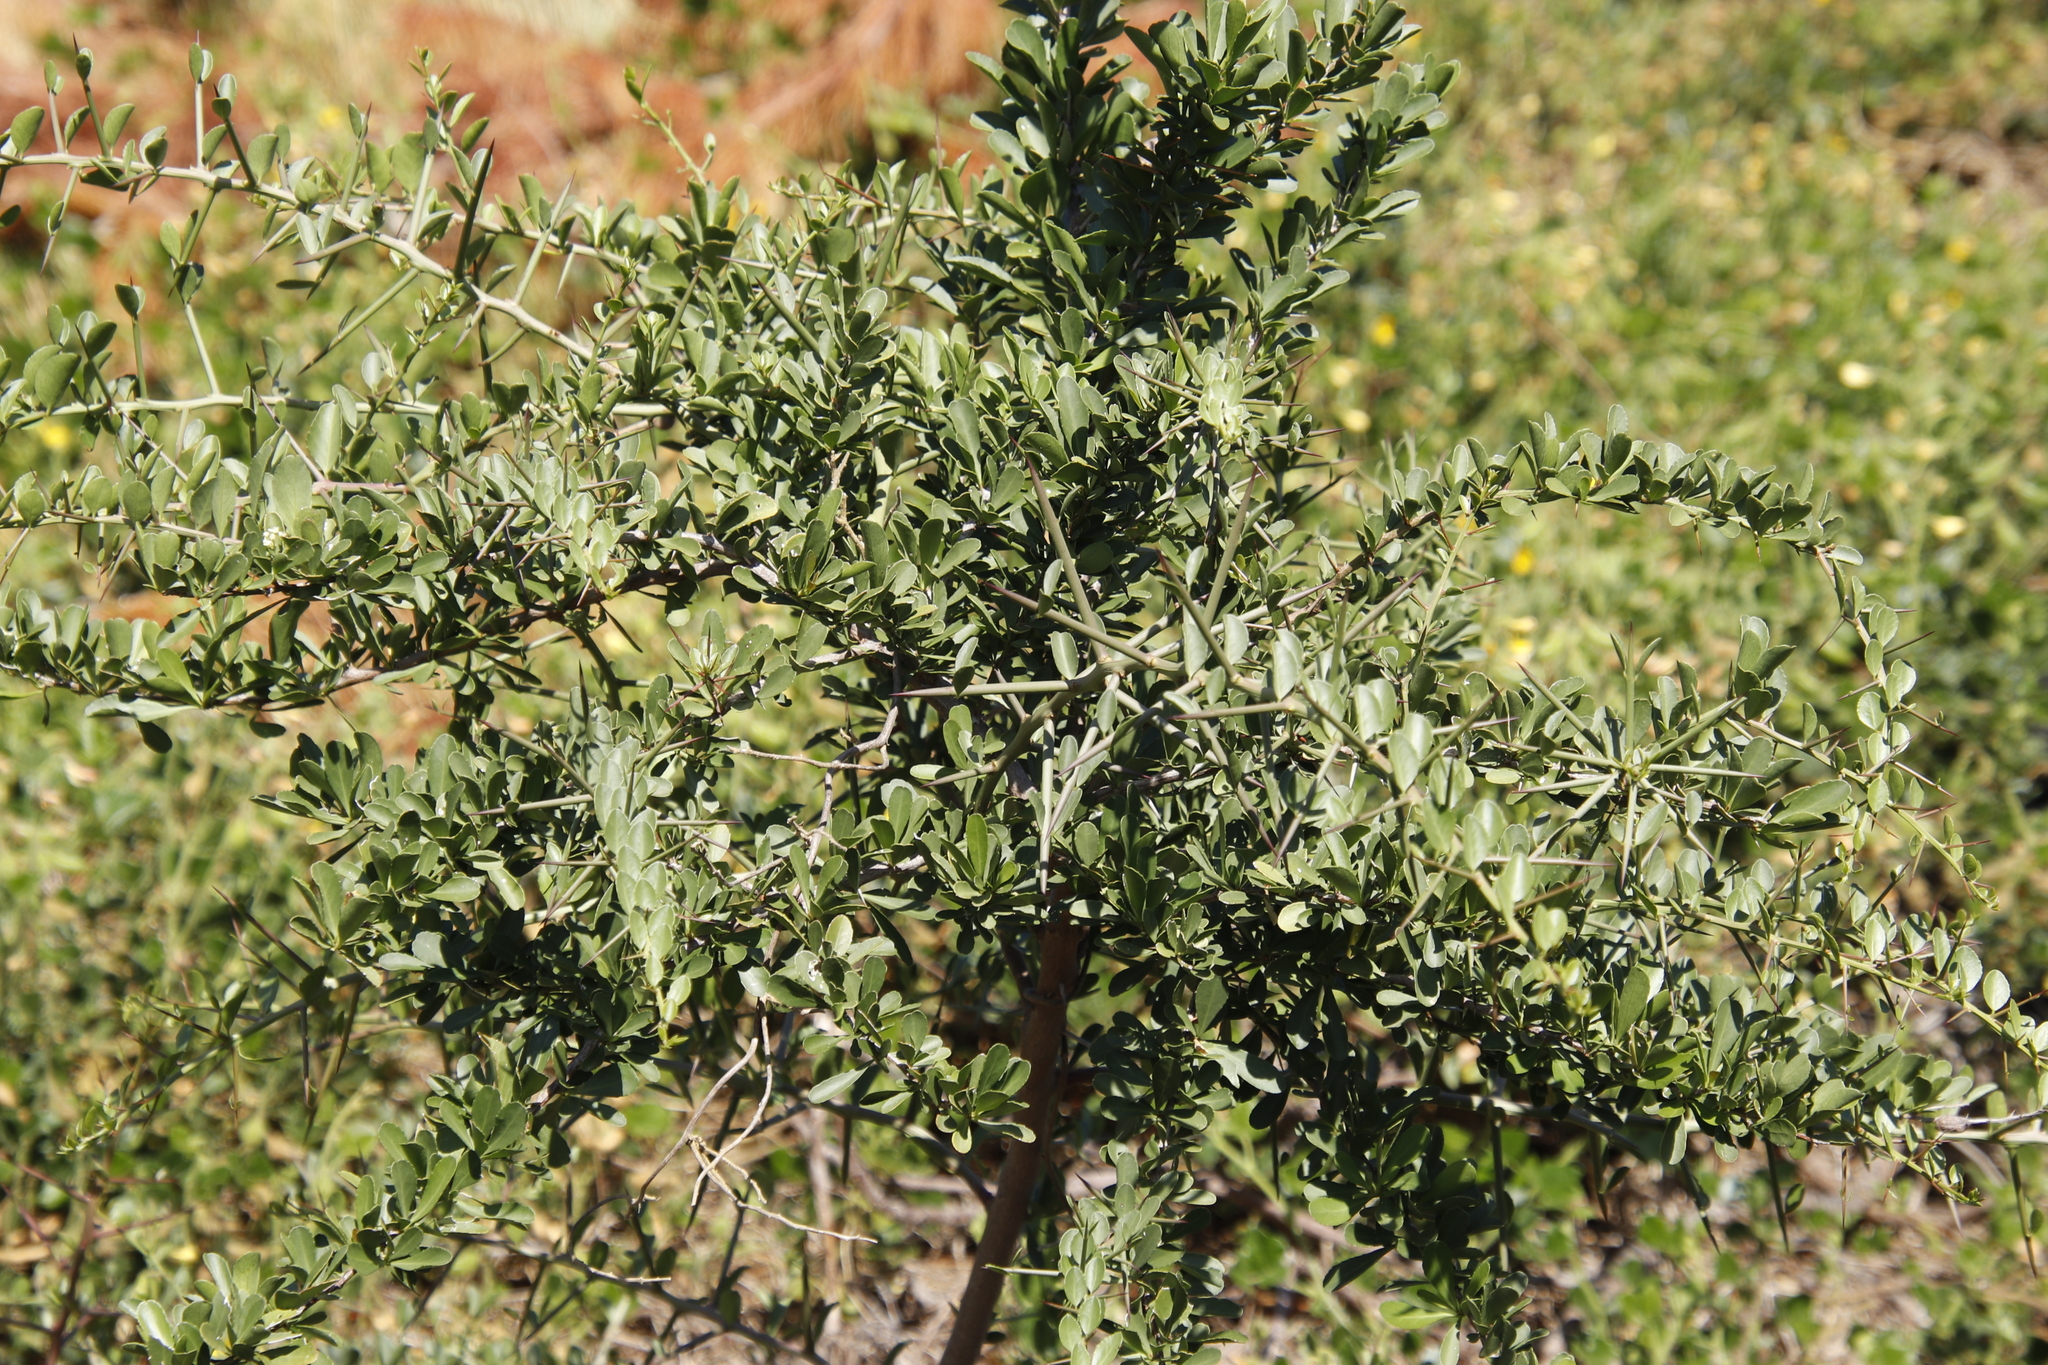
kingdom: Plantae
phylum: Tracheophyta
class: Magnoliopsida
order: Celastrales
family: Celastraceae
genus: Gymnosporia
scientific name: Gymnosporia buxifolia
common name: Common spike-thorn
